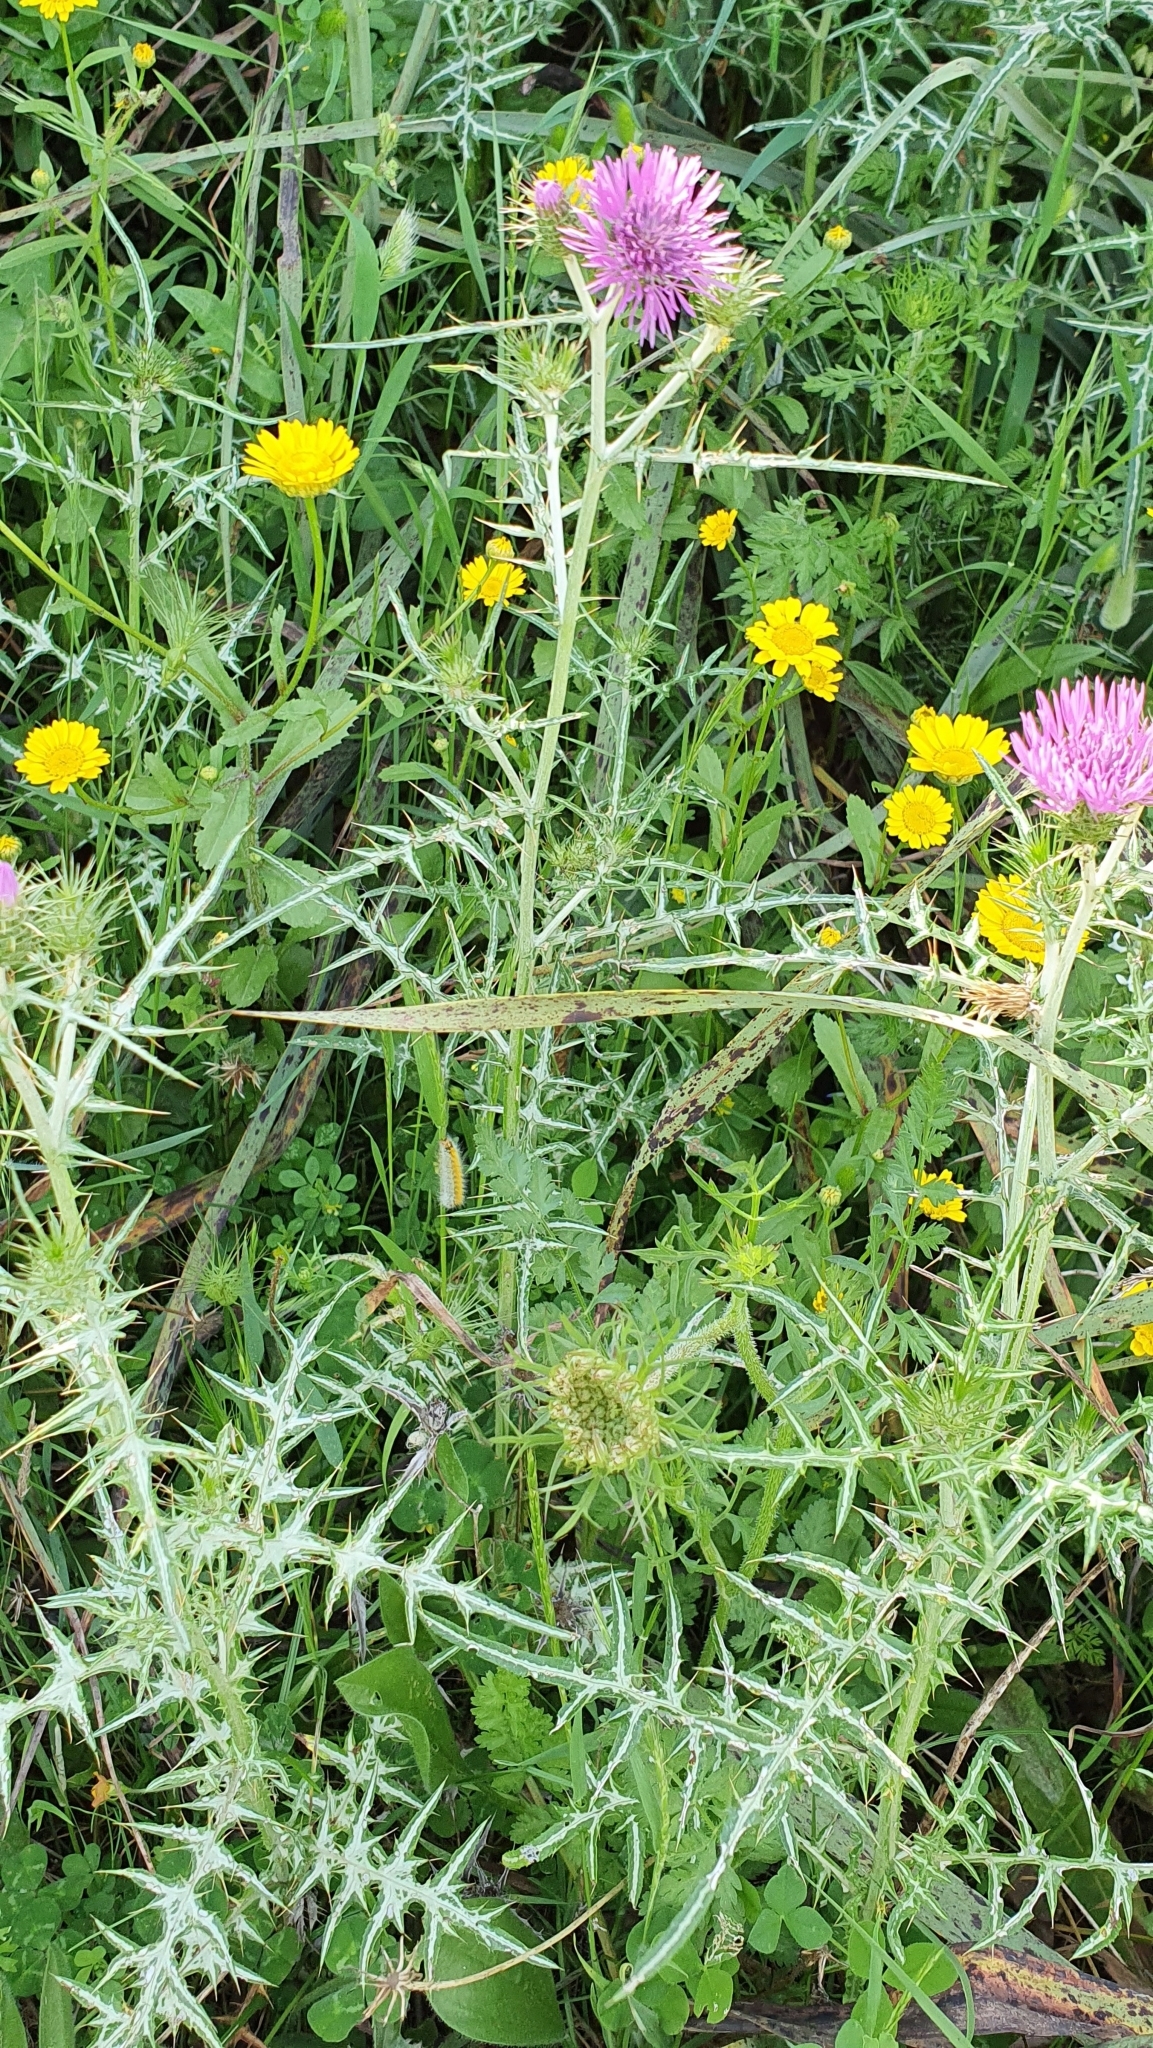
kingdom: Plantae
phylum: Tracheophyta
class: Magnoliopsida
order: Asterales
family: Asteraceae
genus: Galactites
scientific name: Galactites tomentosa
